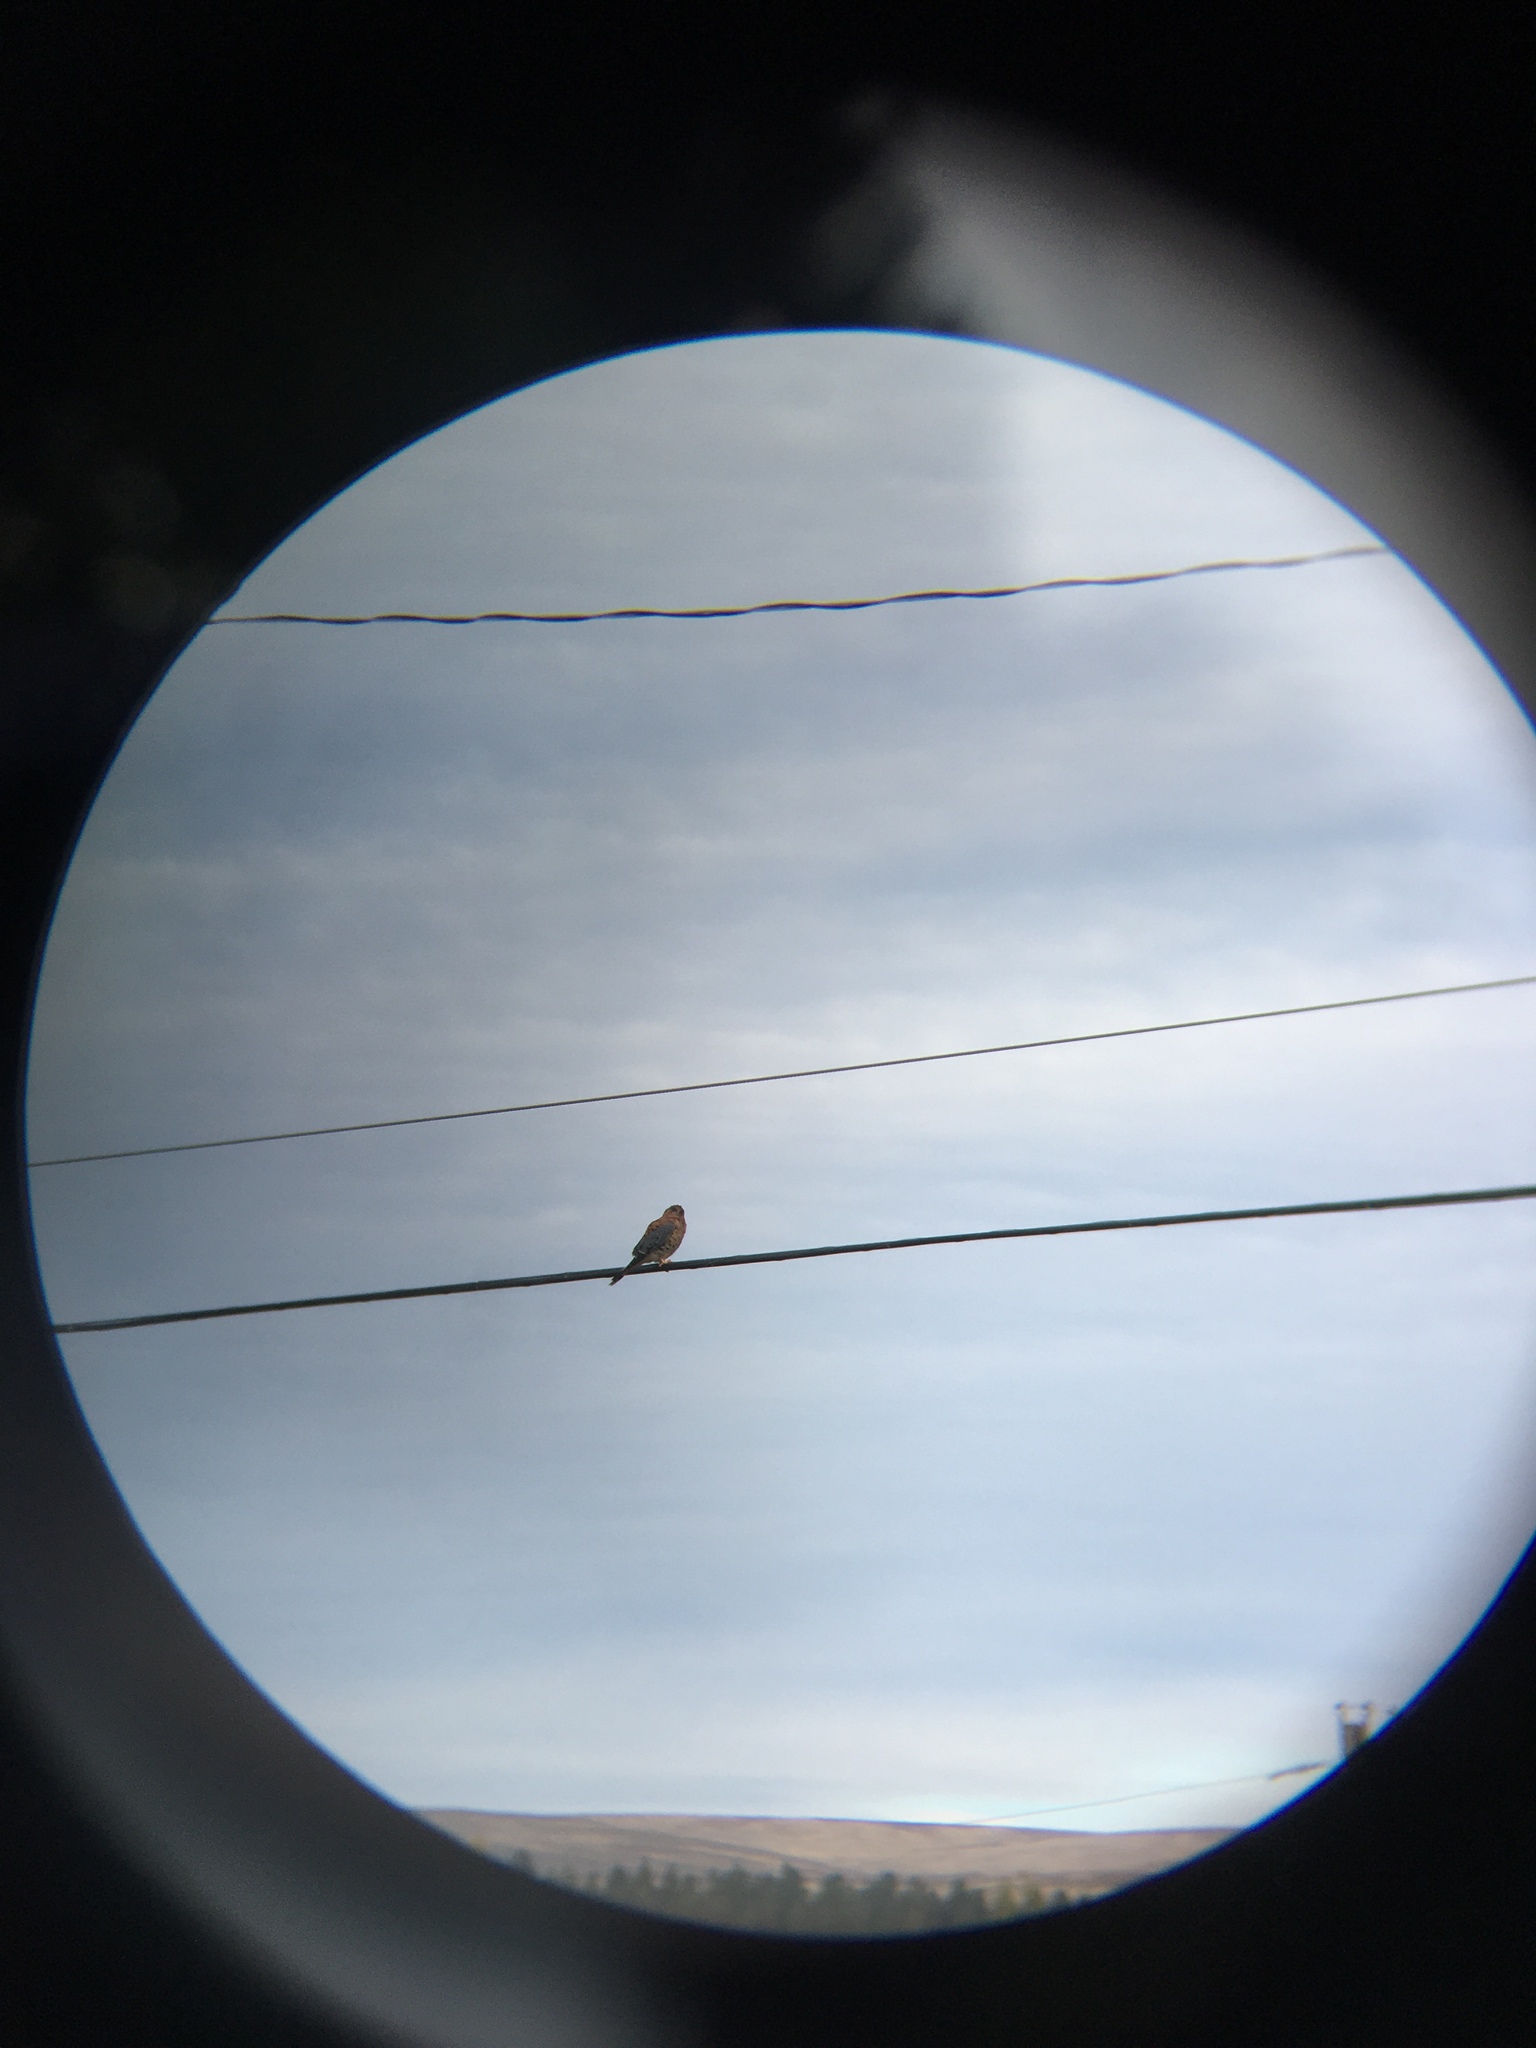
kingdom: Animalia
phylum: Chordata
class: Aves
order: Falconiformes
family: Falconidae
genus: Falco
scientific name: Falco sparverius
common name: American kestrel
